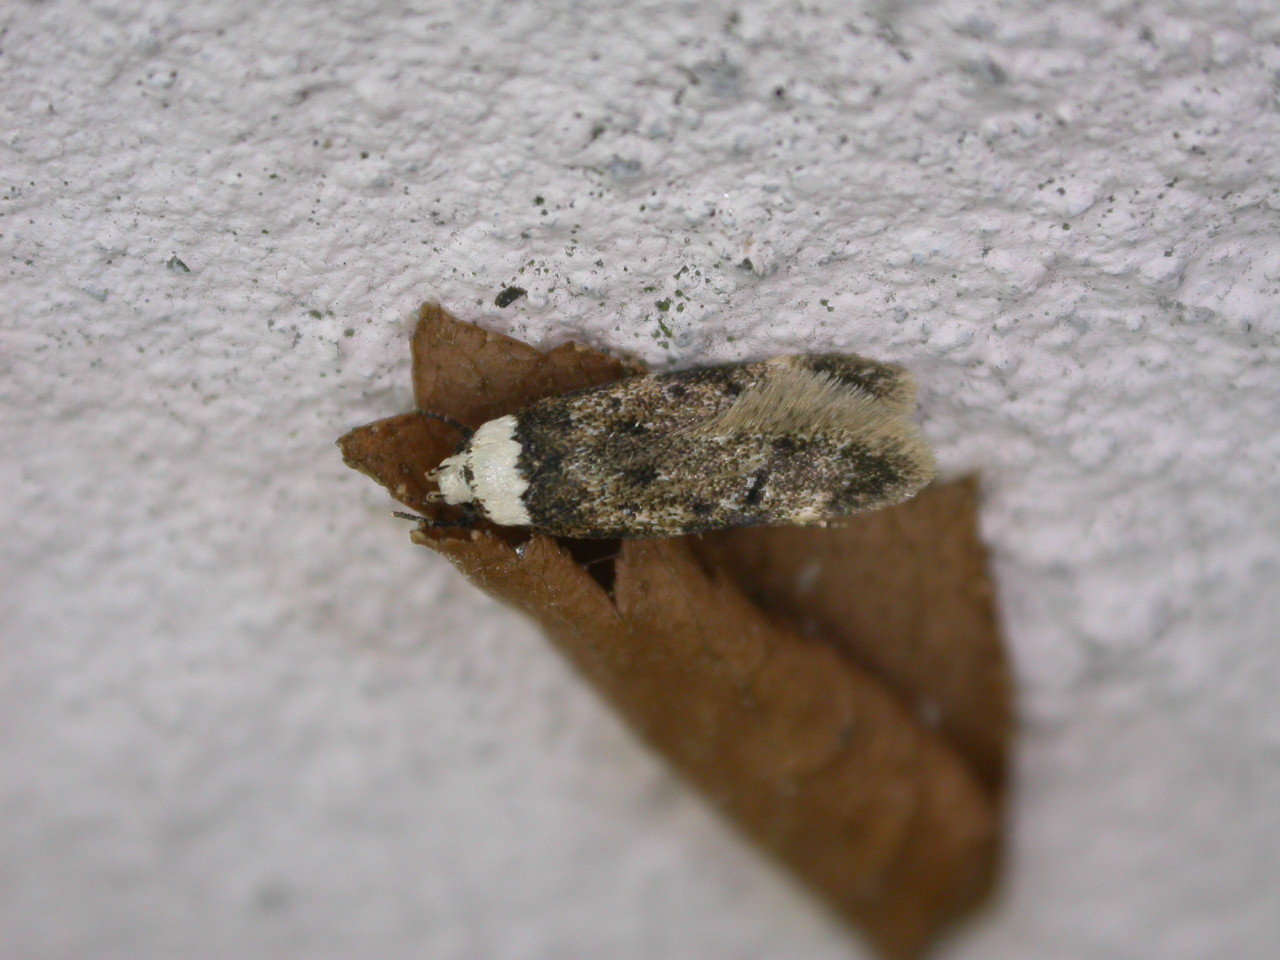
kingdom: Animalia
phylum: Arthropoda
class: Insecta
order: Lepidoptera
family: Oecophoridae
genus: Endrosis
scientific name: Endrosis sarcitrella
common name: White-shouldered house moth
